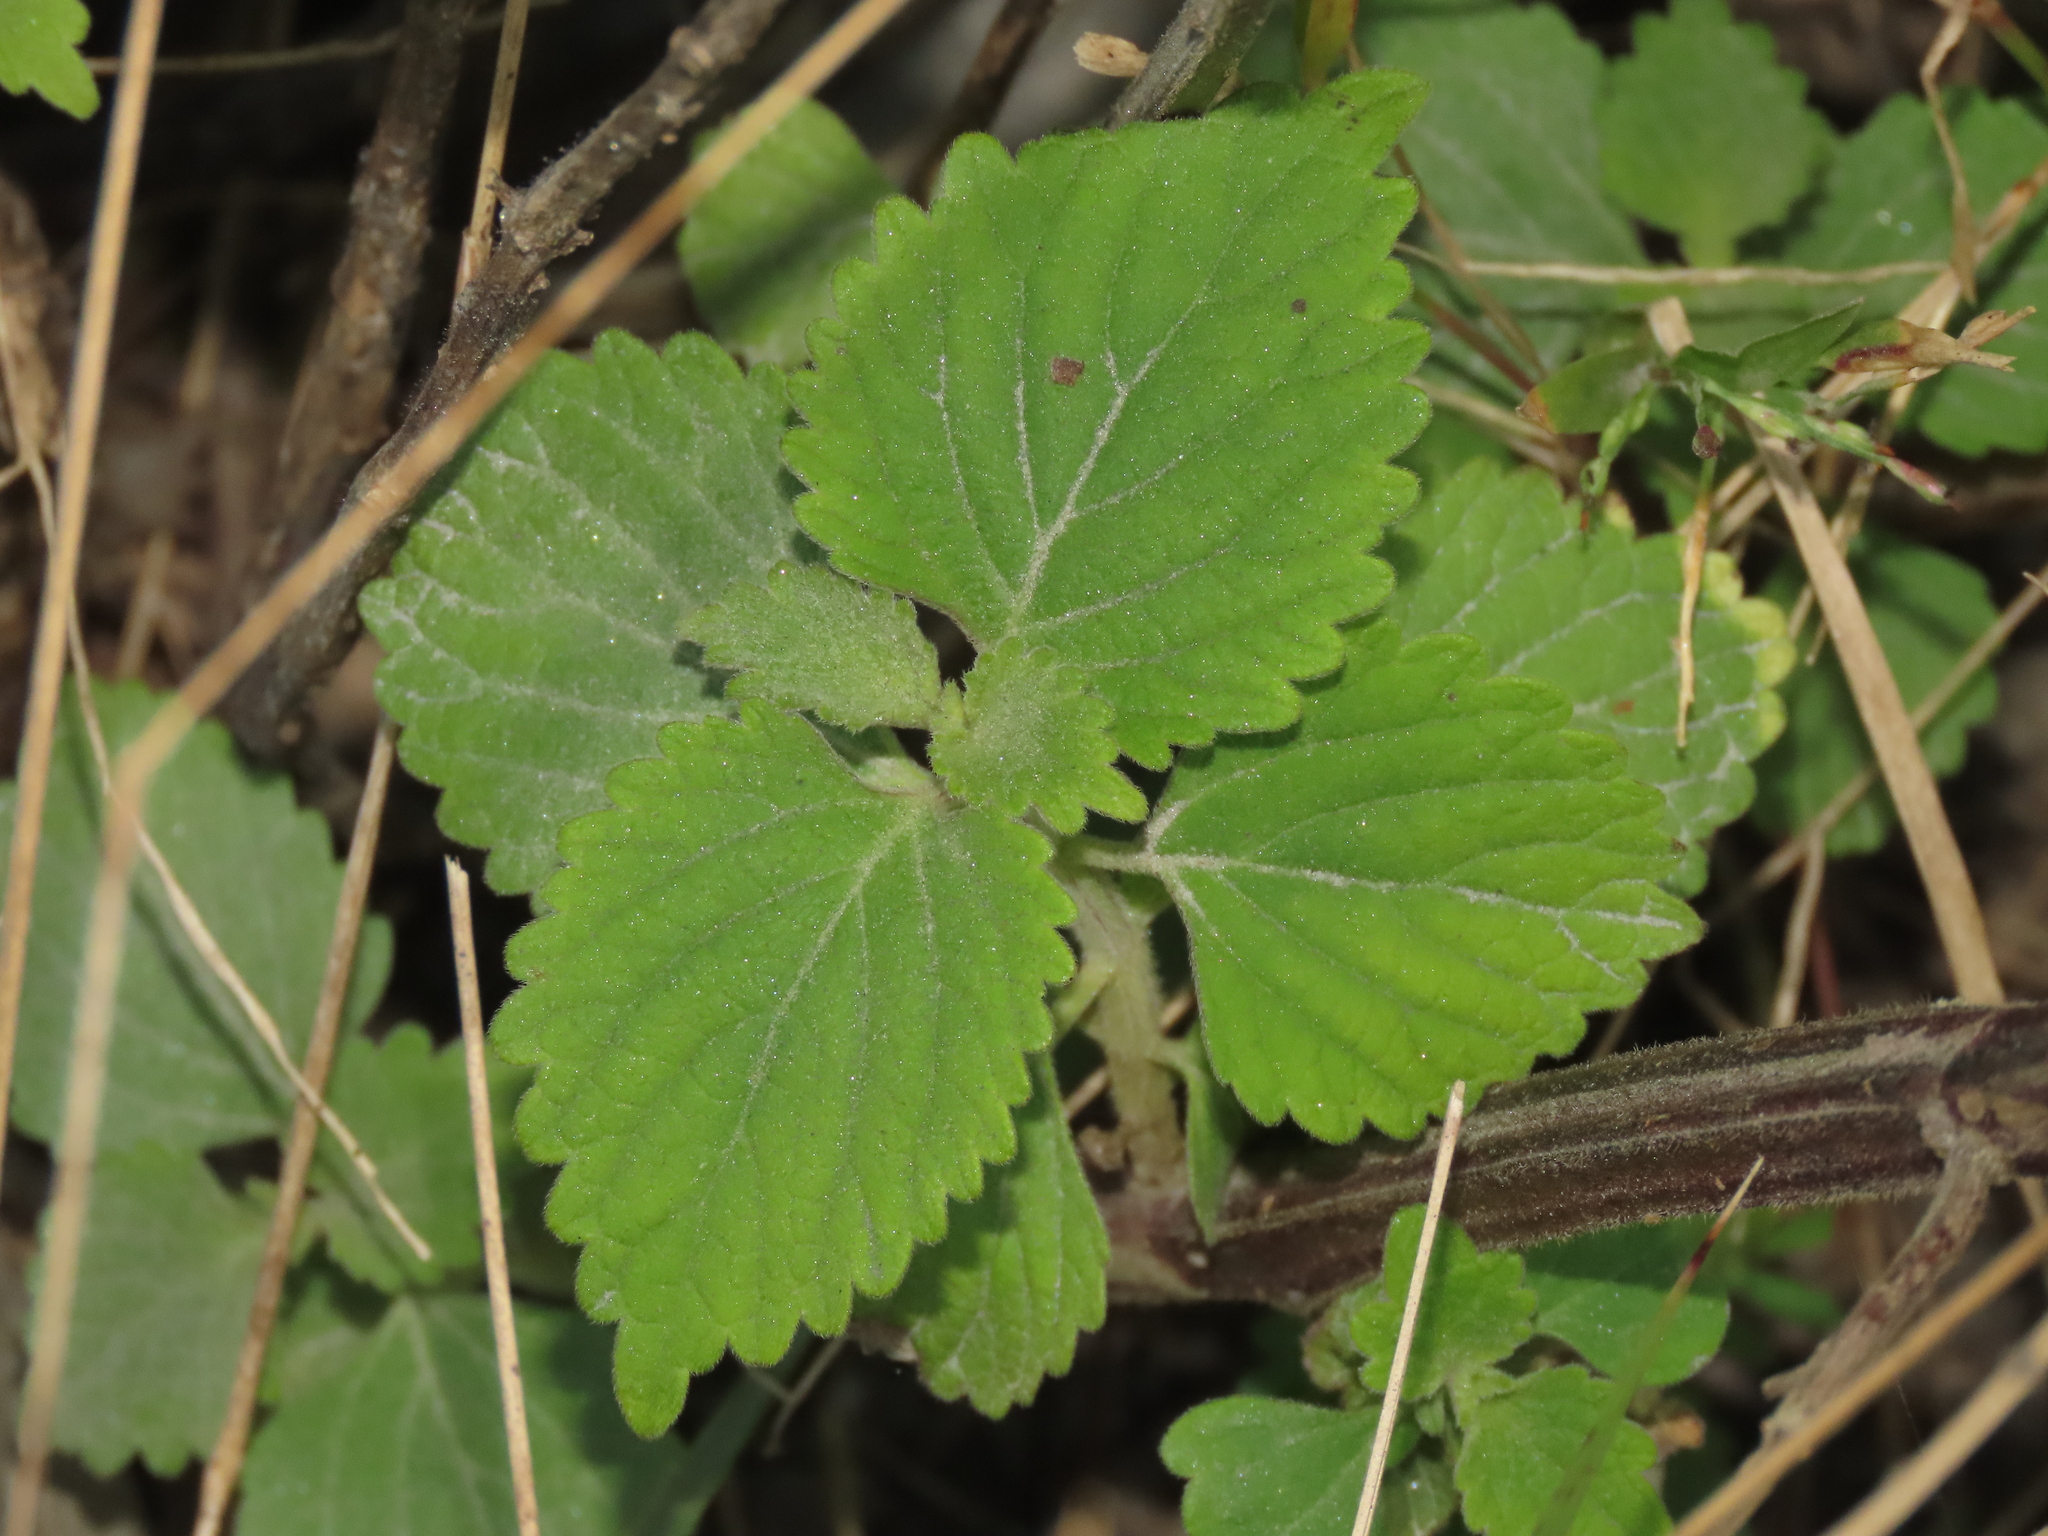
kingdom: Plantae
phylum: Tracheophyta
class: Magnoliopsida
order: Lamiales
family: Lamiaceae
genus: Anisomeles
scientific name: Anisomeles indica
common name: Catmint
